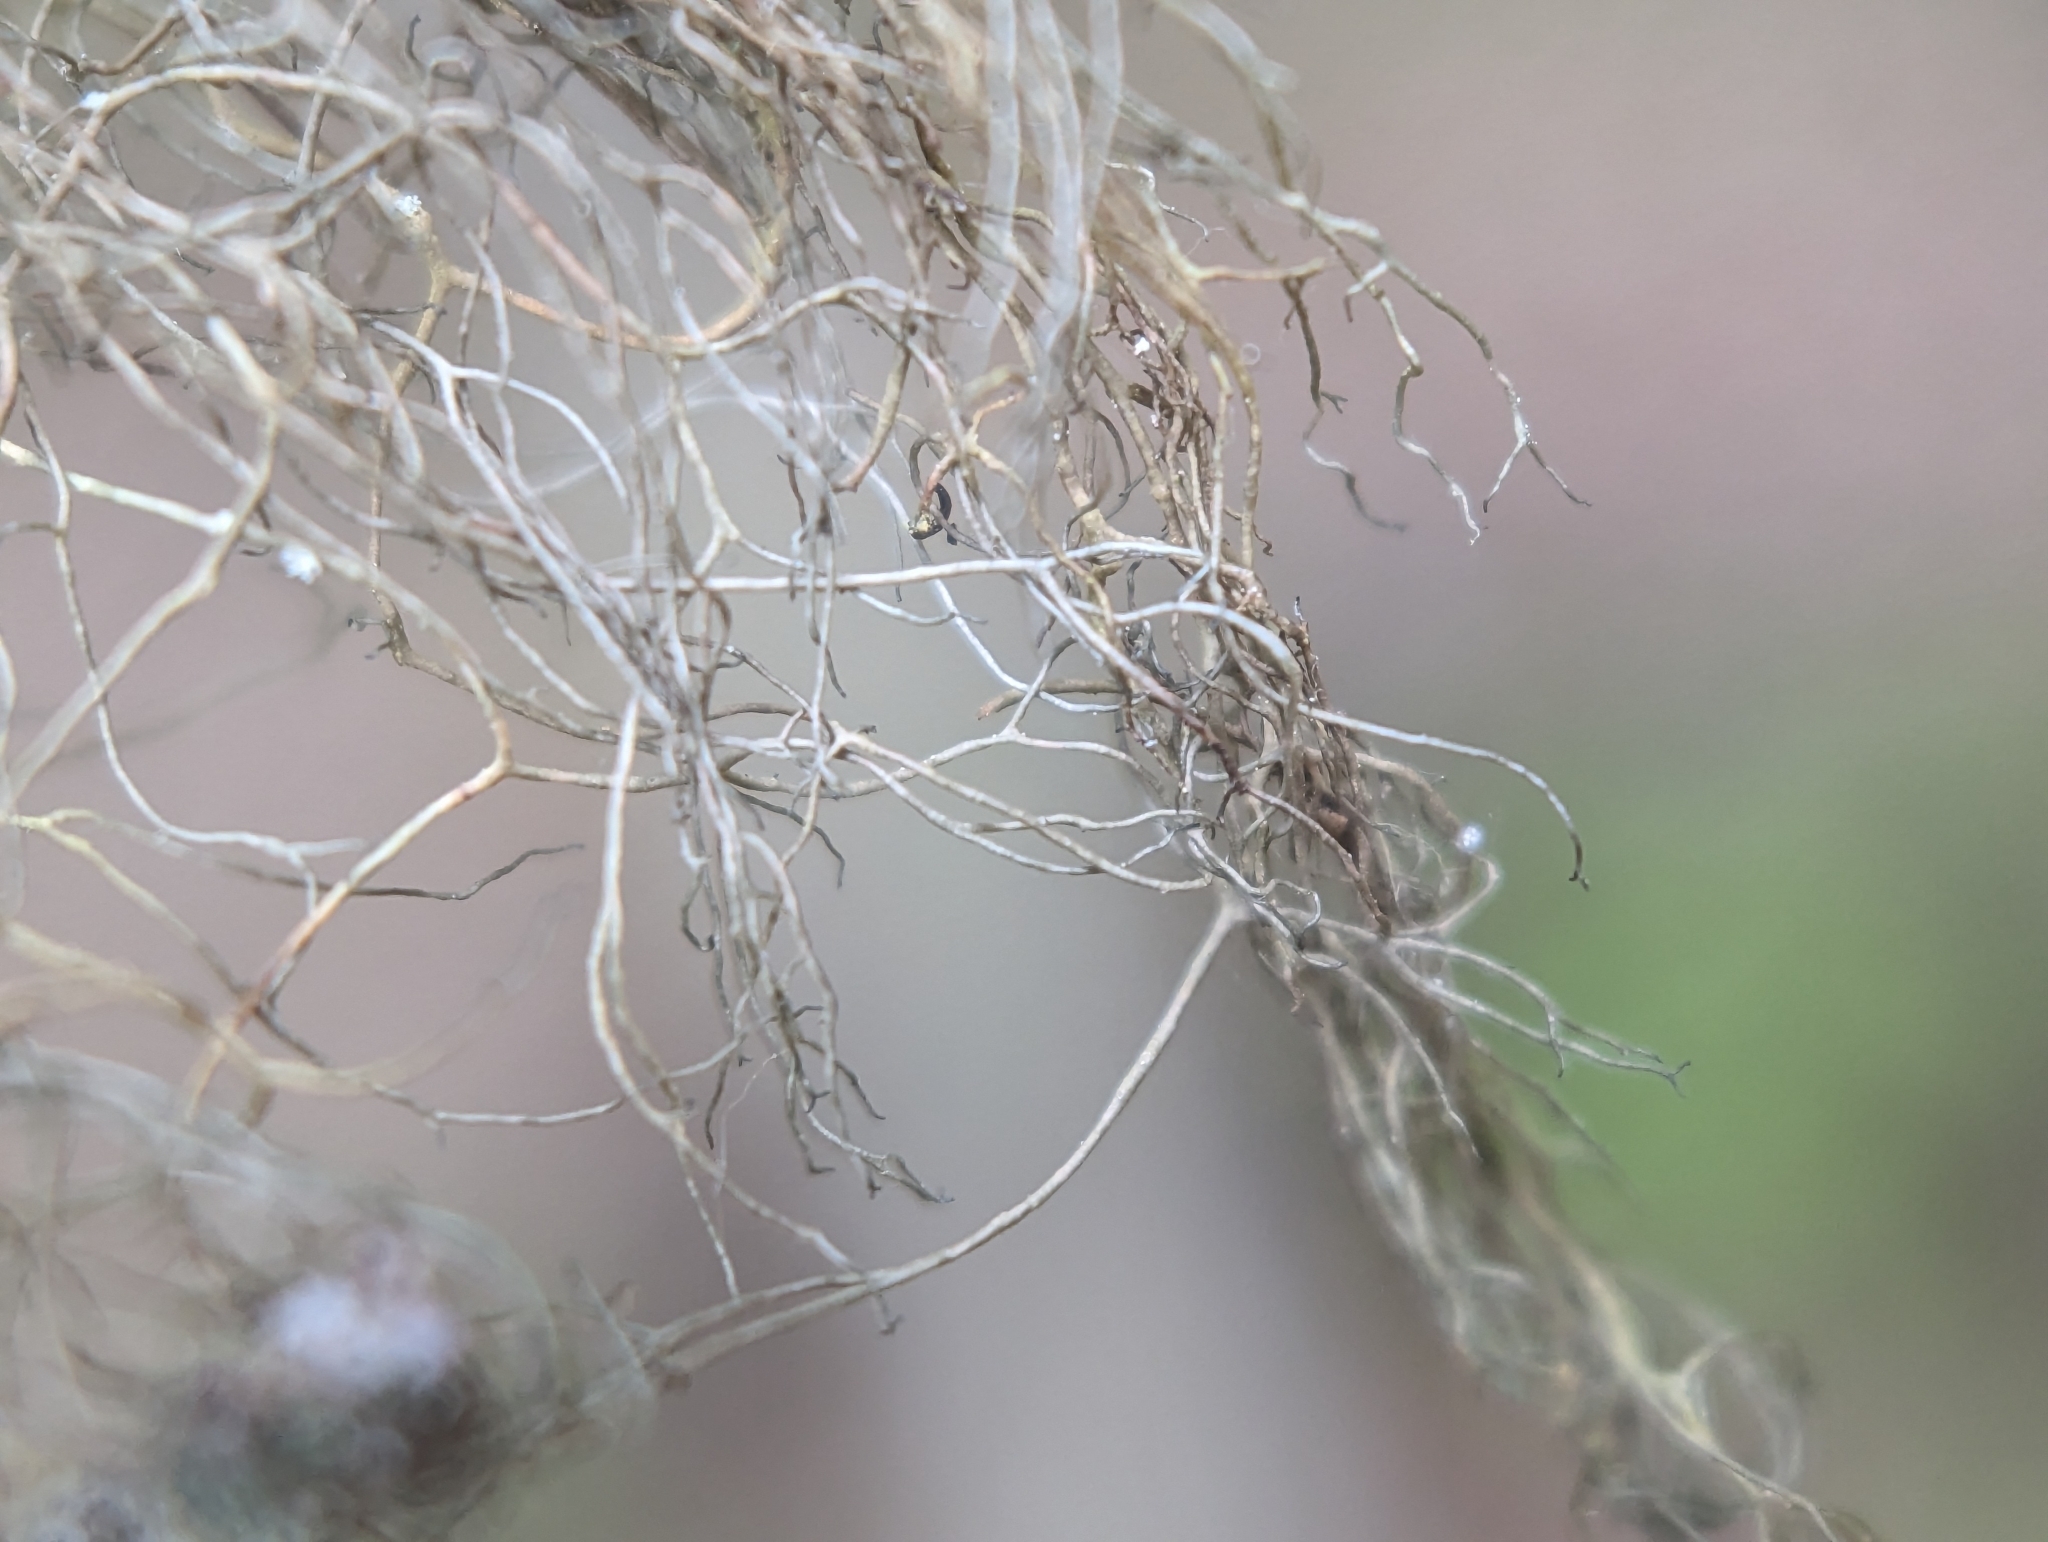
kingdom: Fungi
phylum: Ascomycota
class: Lecanoromycetes
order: Lecanorales
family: Parmeliaceae
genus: Bryoria
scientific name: Bryoria fuscescens
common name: Pale-footed horsehair lichen
